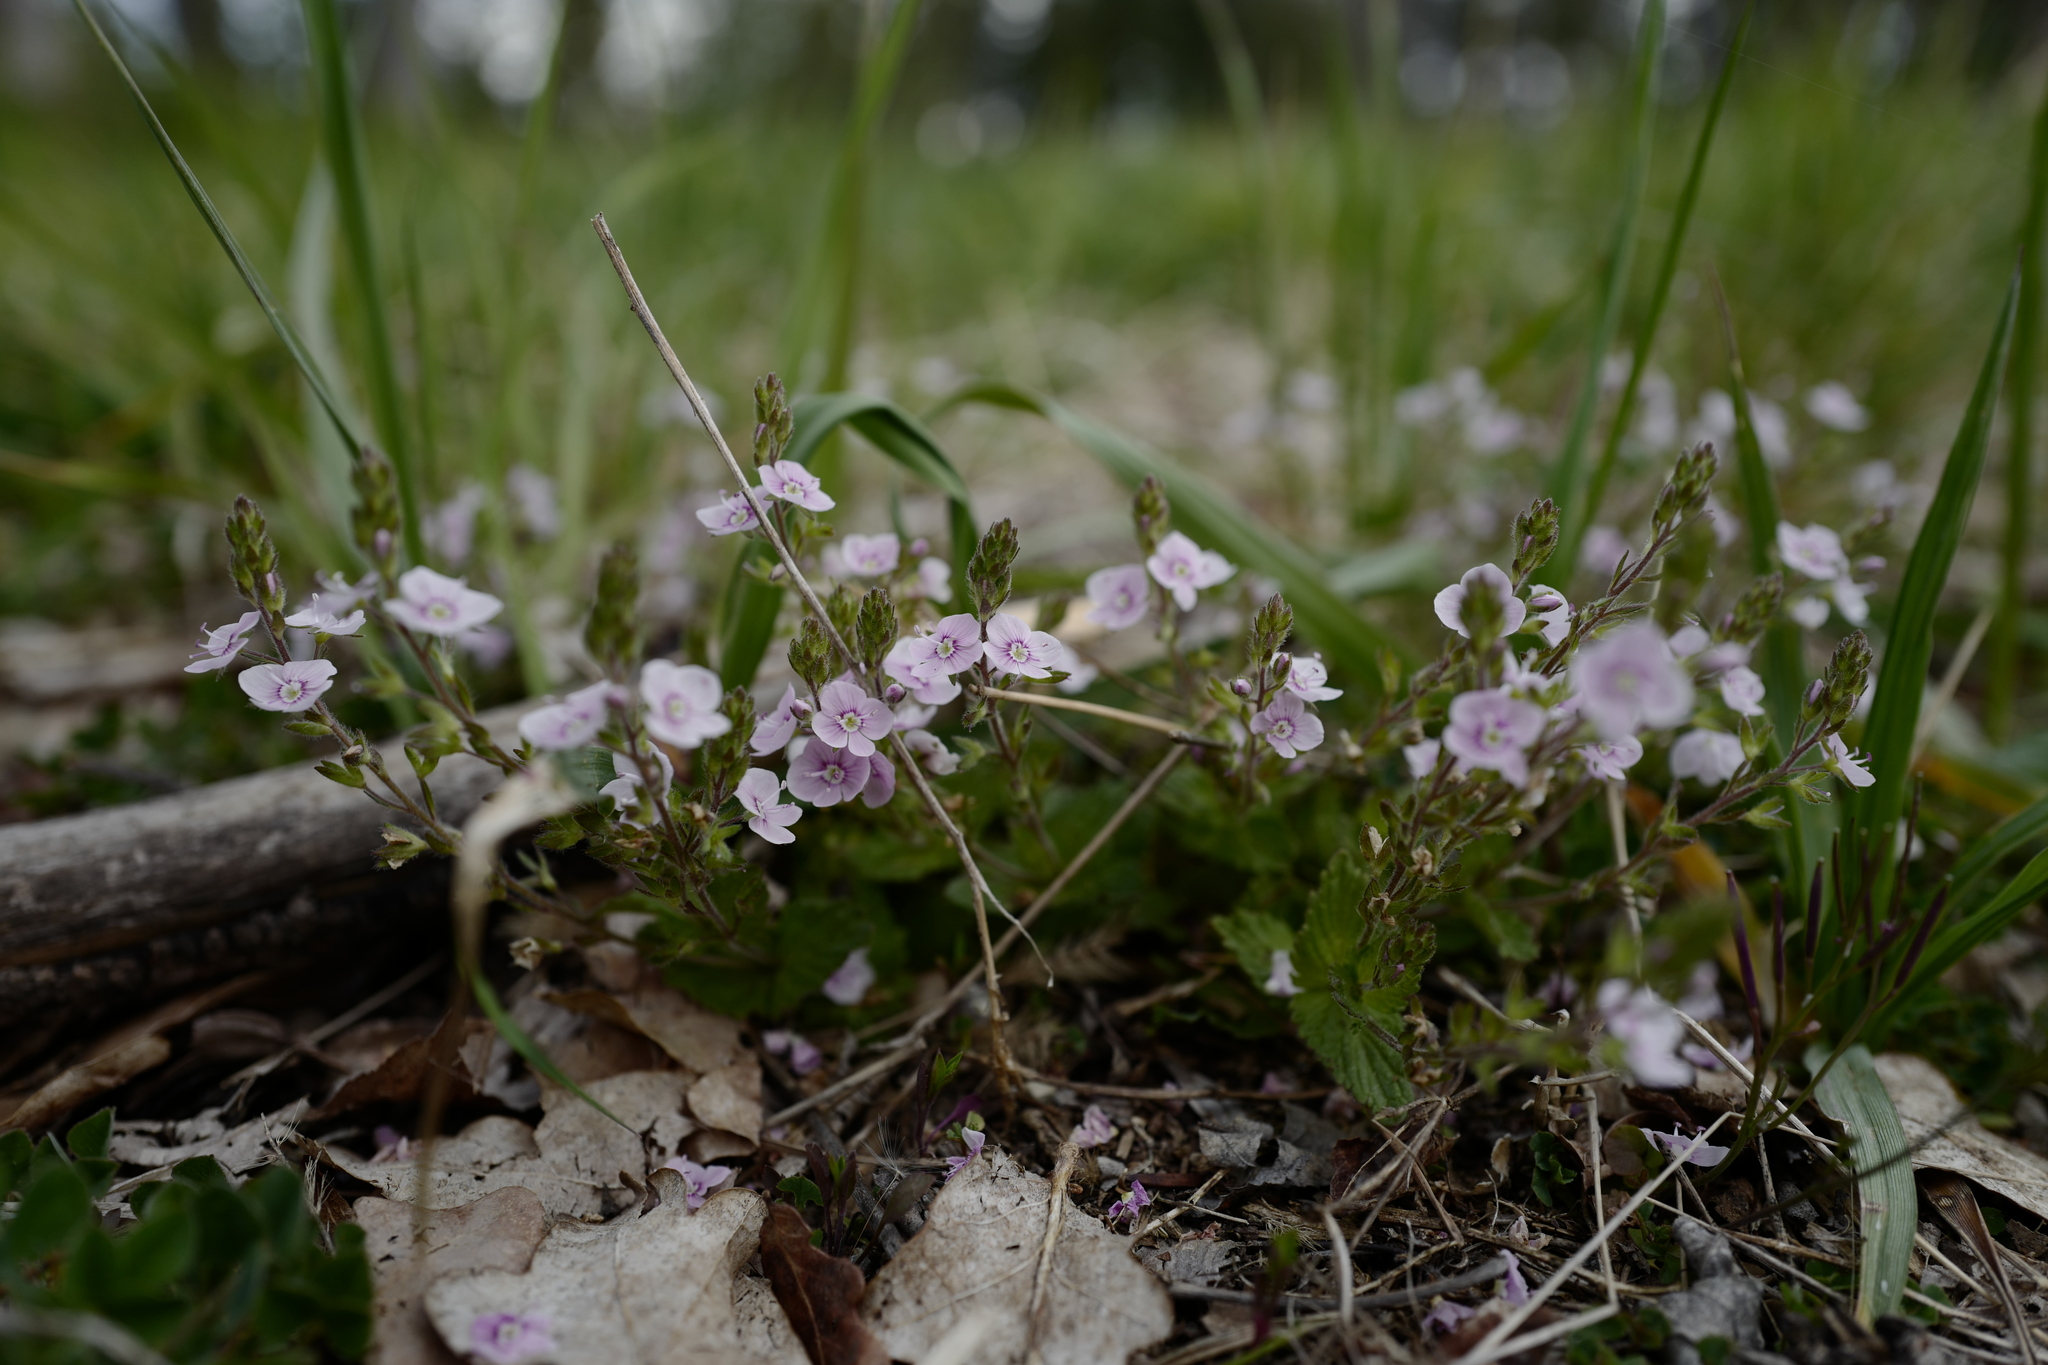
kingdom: Plantae
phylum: Tracheophyta
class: Magnoliopsida
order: Lamiales
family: Plantaginaceae
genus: Veronica
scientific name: Veronica chamaedrys
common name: Germander speedwell
